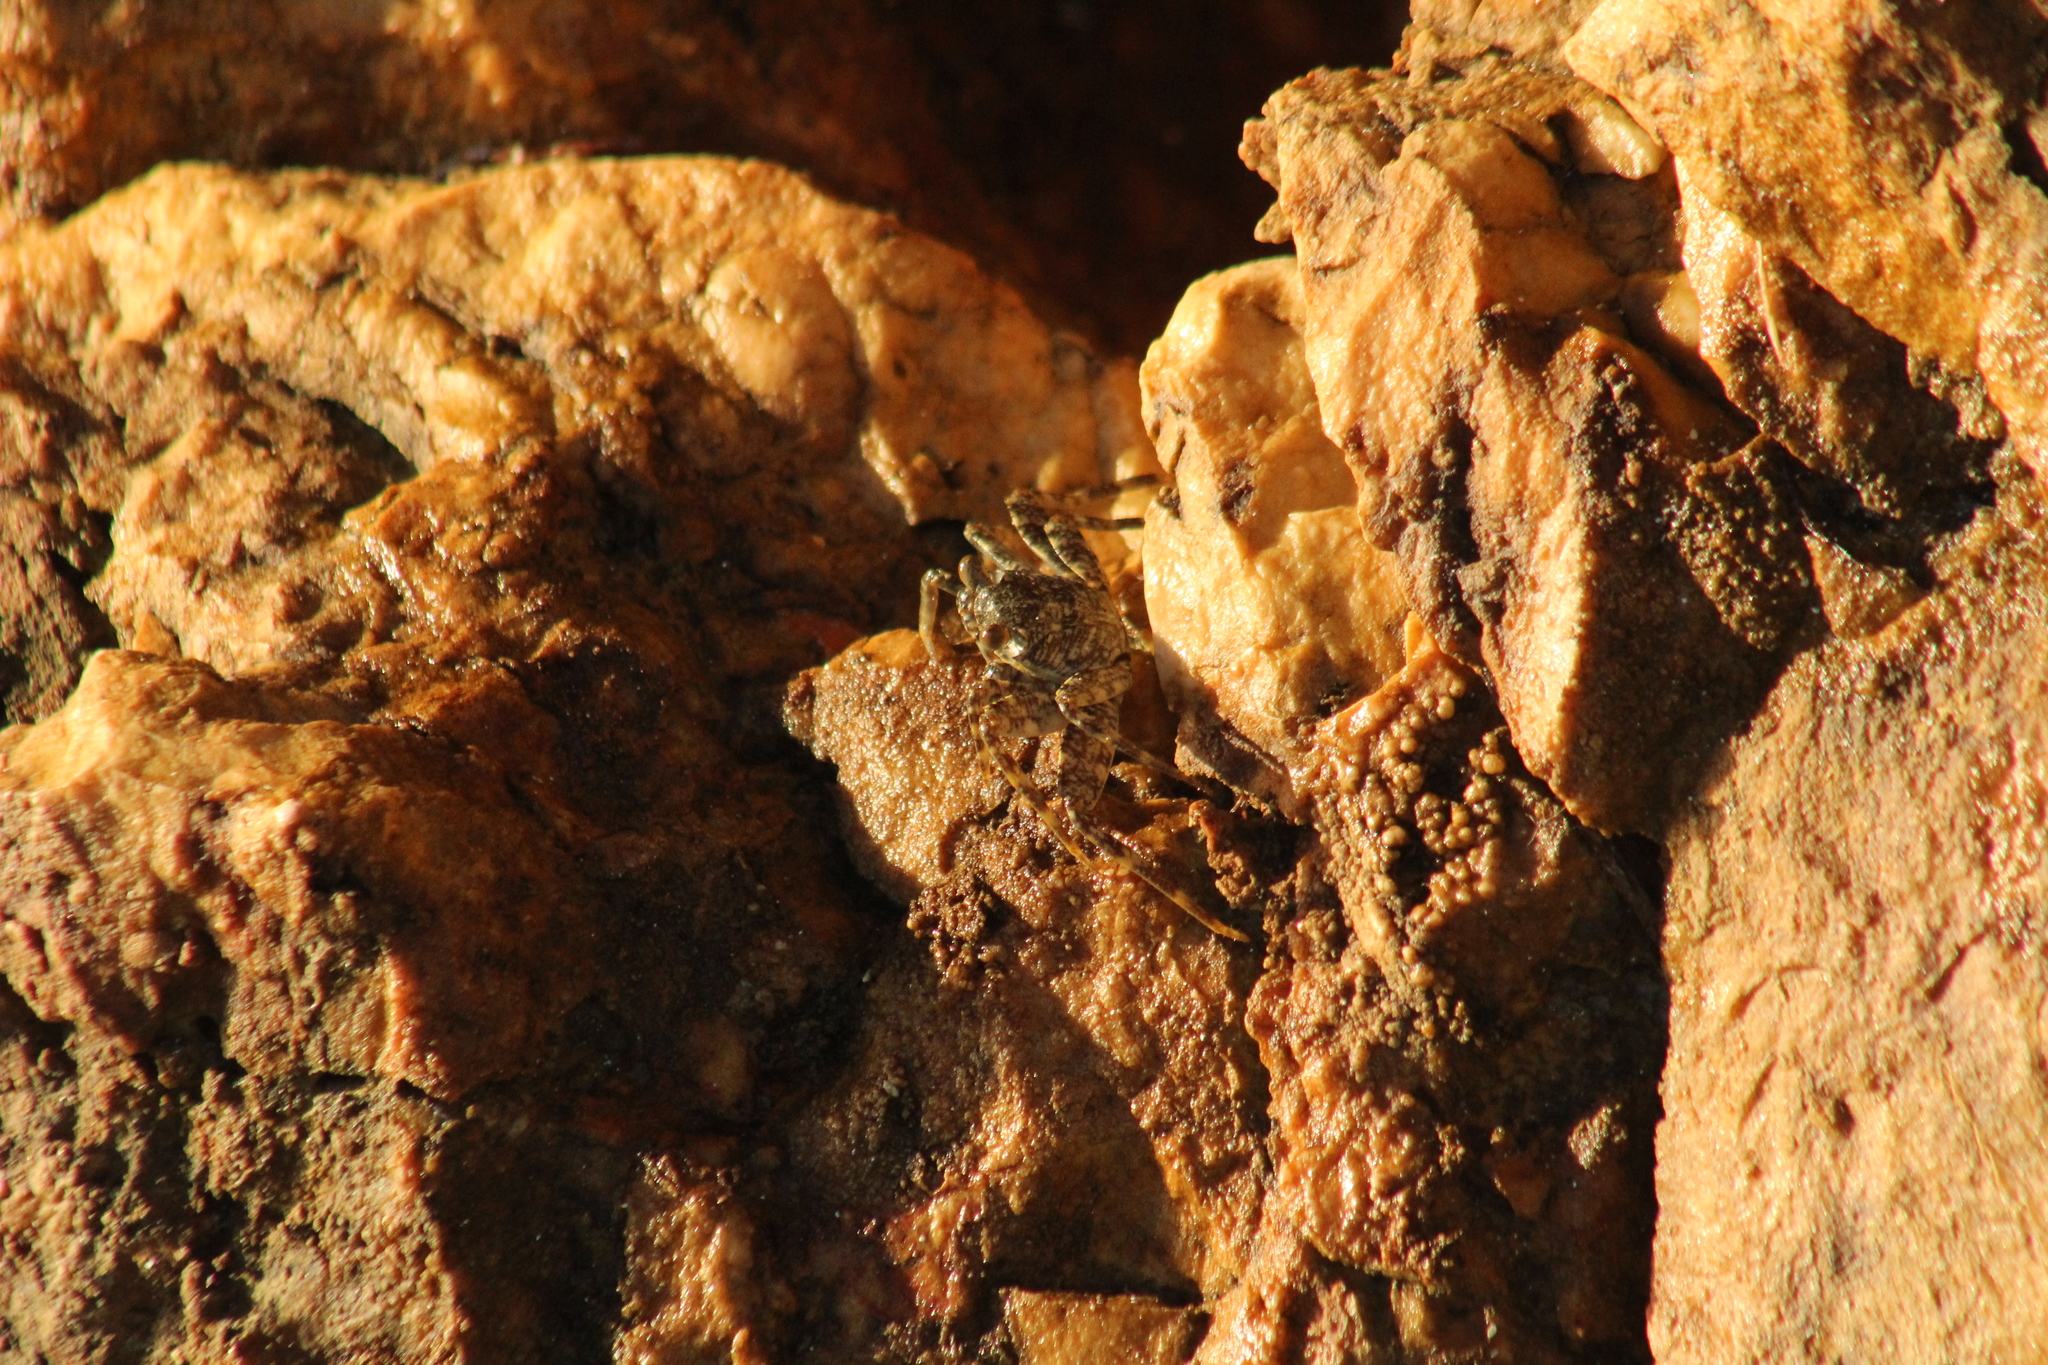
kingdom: Animalia
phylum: Arthropoda
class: Malacostraca
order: Decapoda
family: Grapsidae
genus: Grapsus
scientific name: Grapsus grapsus
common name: Sally lightfoot
